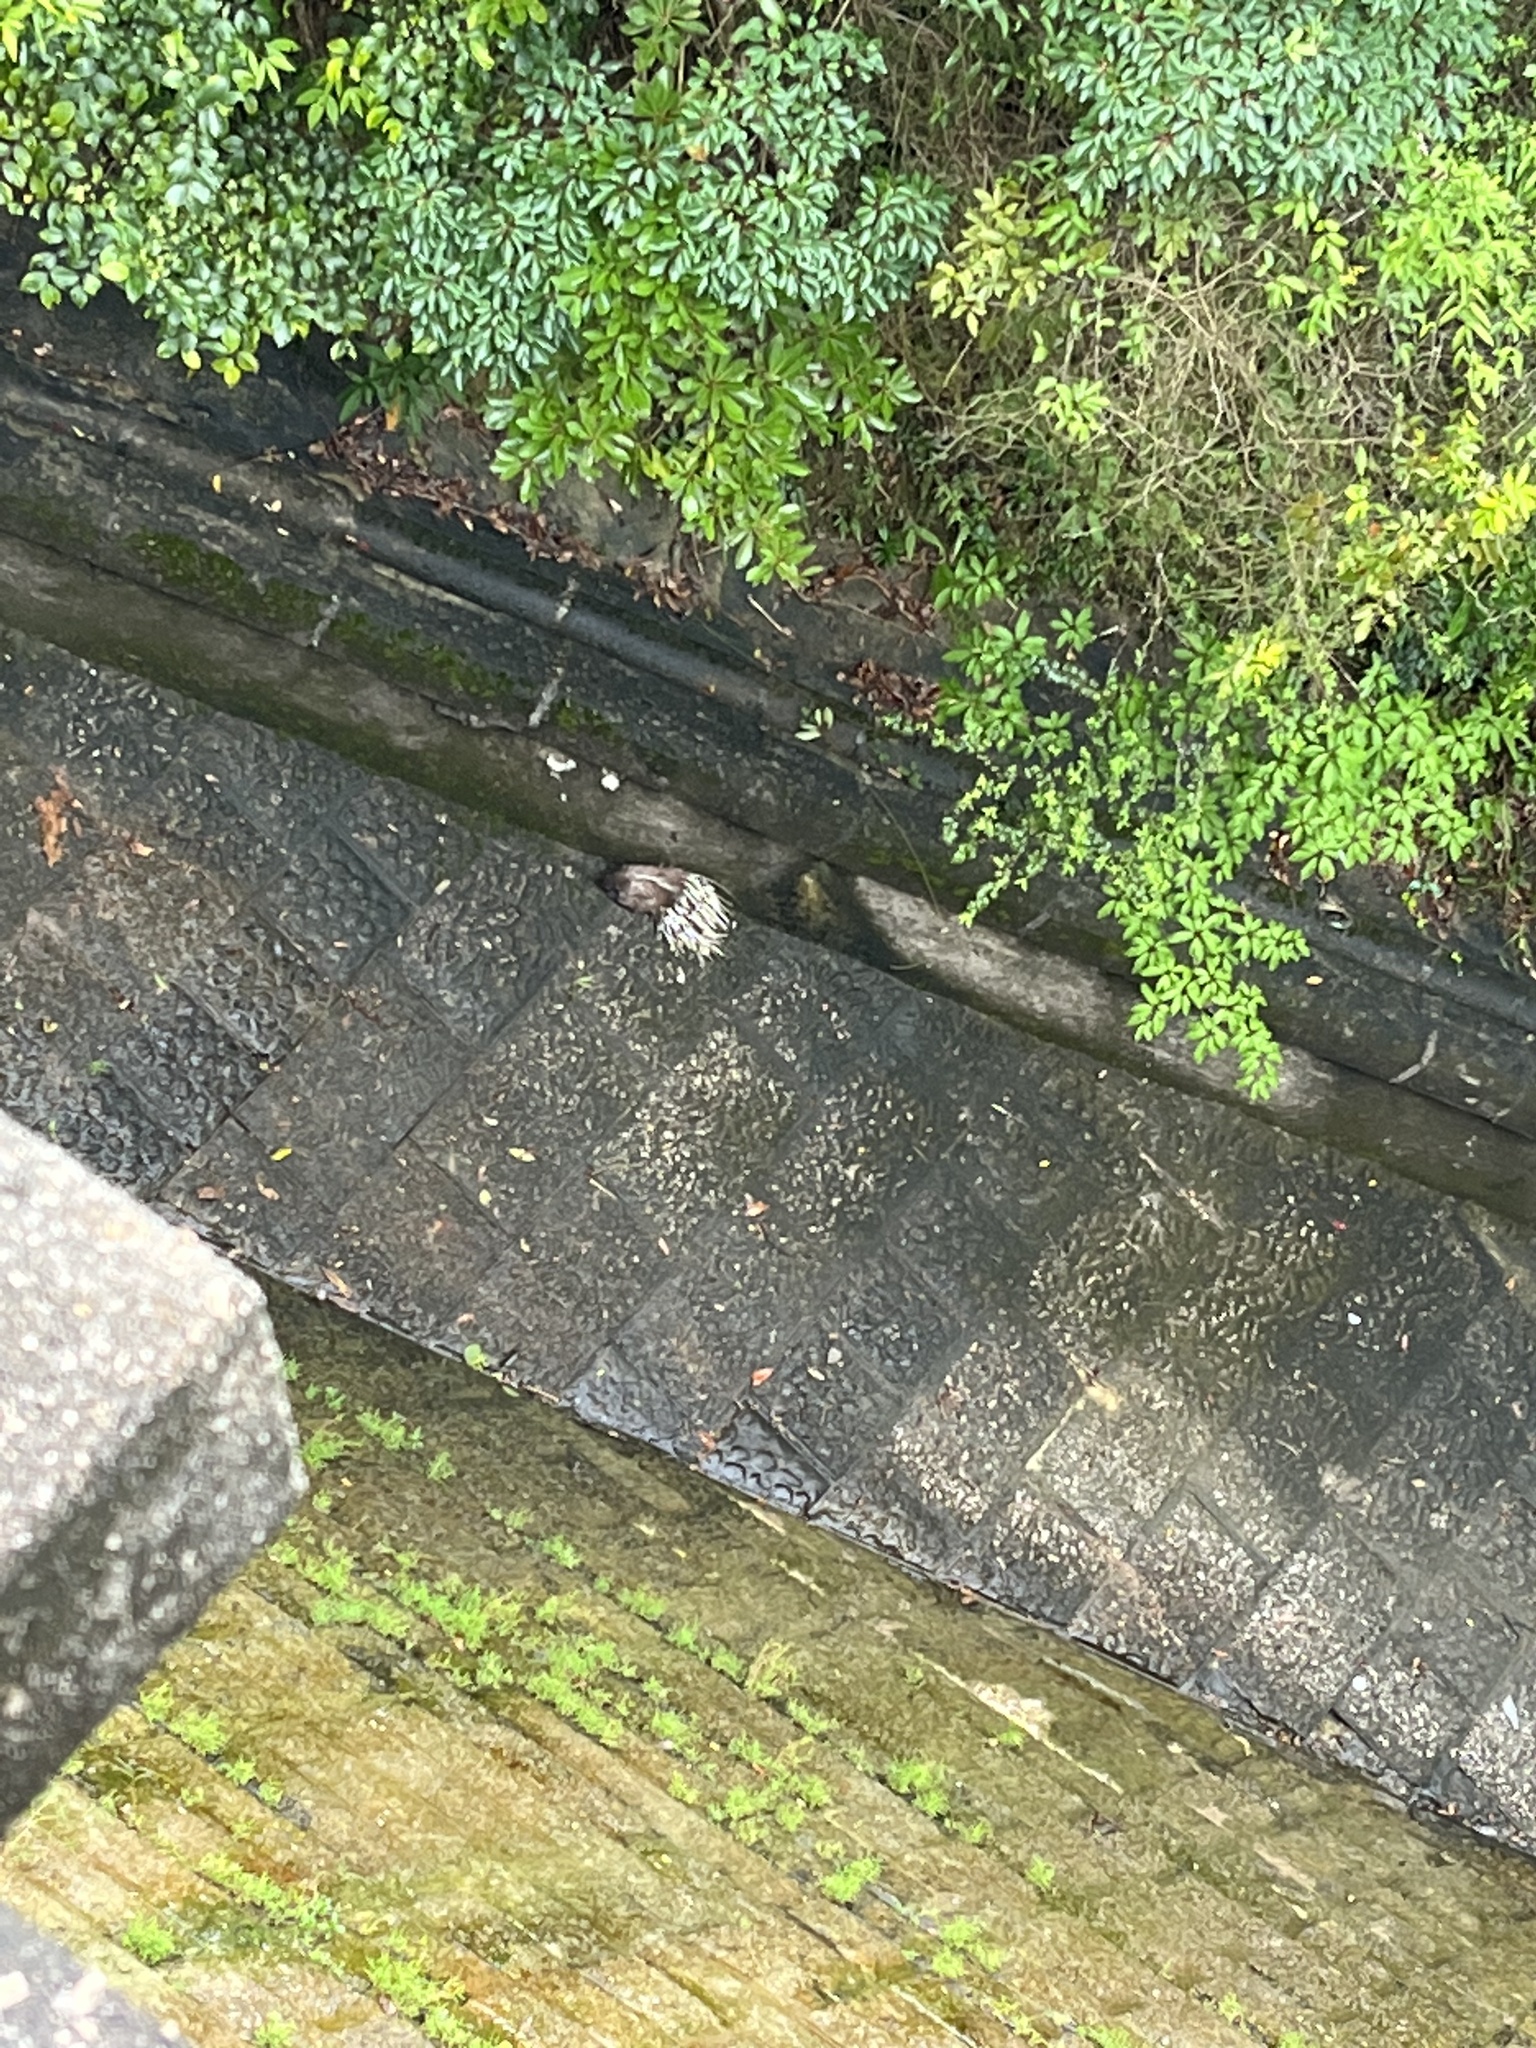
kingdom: Animalia
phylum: Chordata
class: Mammalia
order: Rodentia
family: Hystricidae
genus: Hystrix
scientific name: Hystrix brachyura
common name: Malayan porcupine
